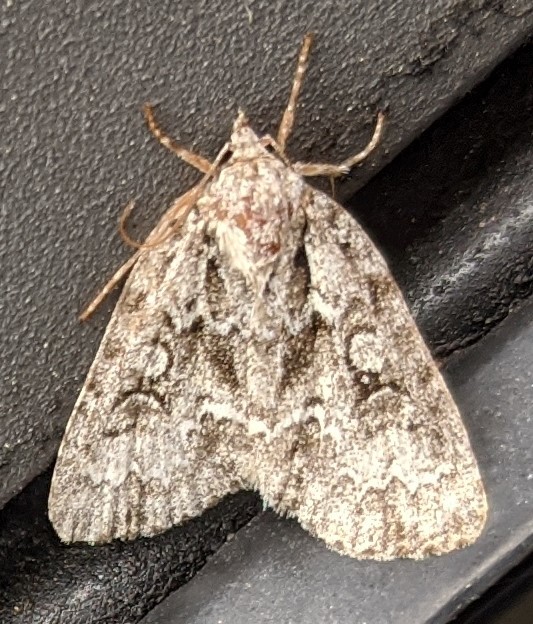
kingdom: Animalia
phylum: Arthropoda
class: Insecta
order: Lepidoptera
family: Noctuidae
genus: Acronicta
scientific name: Acronicta fragilis
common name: Fragile dagger
